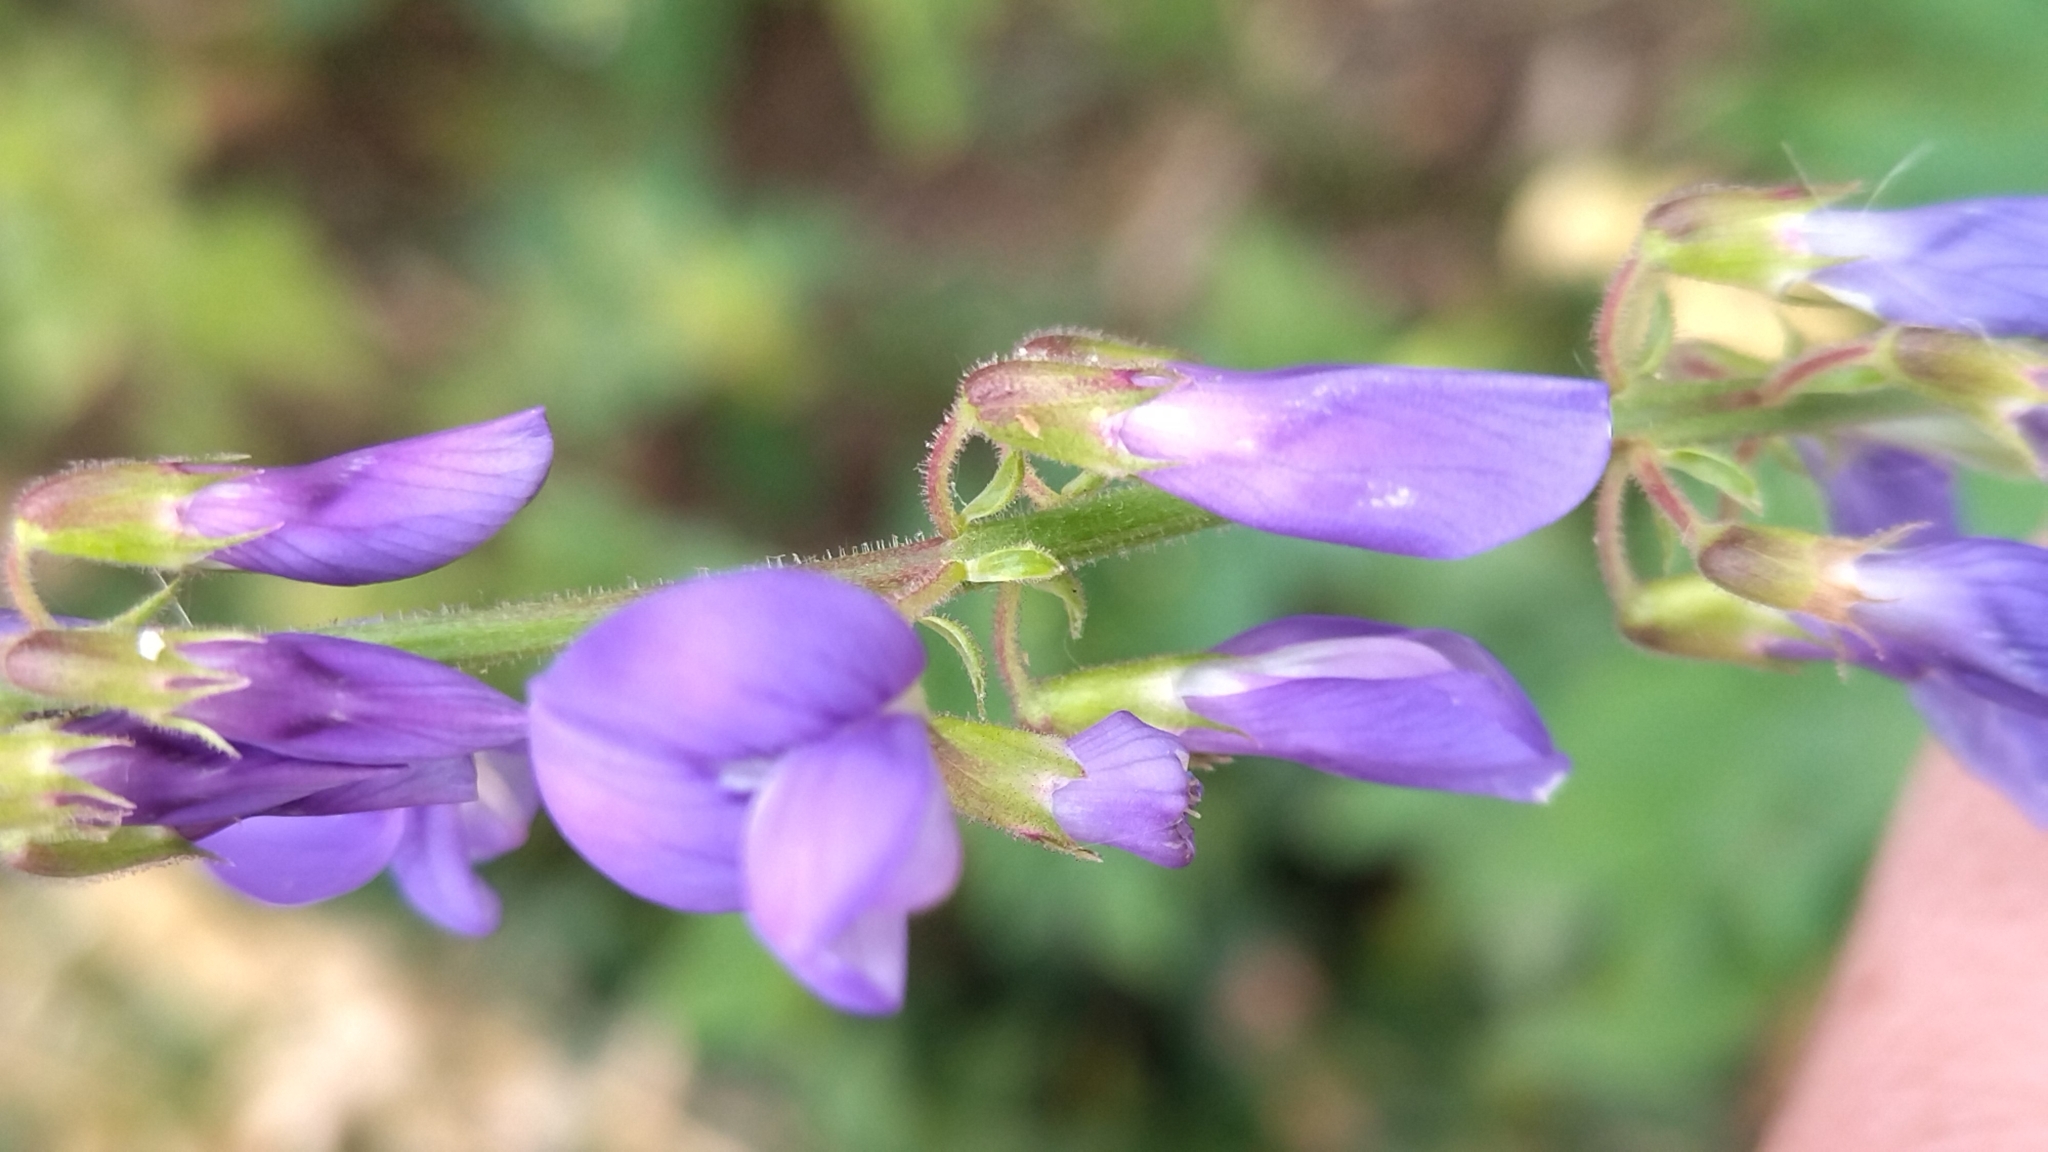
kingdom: Plantae
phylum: Tracheophyta
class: Magnoliopsida
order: Fabales
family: Fabaceae
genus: Galega
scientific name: Galega orientalis
